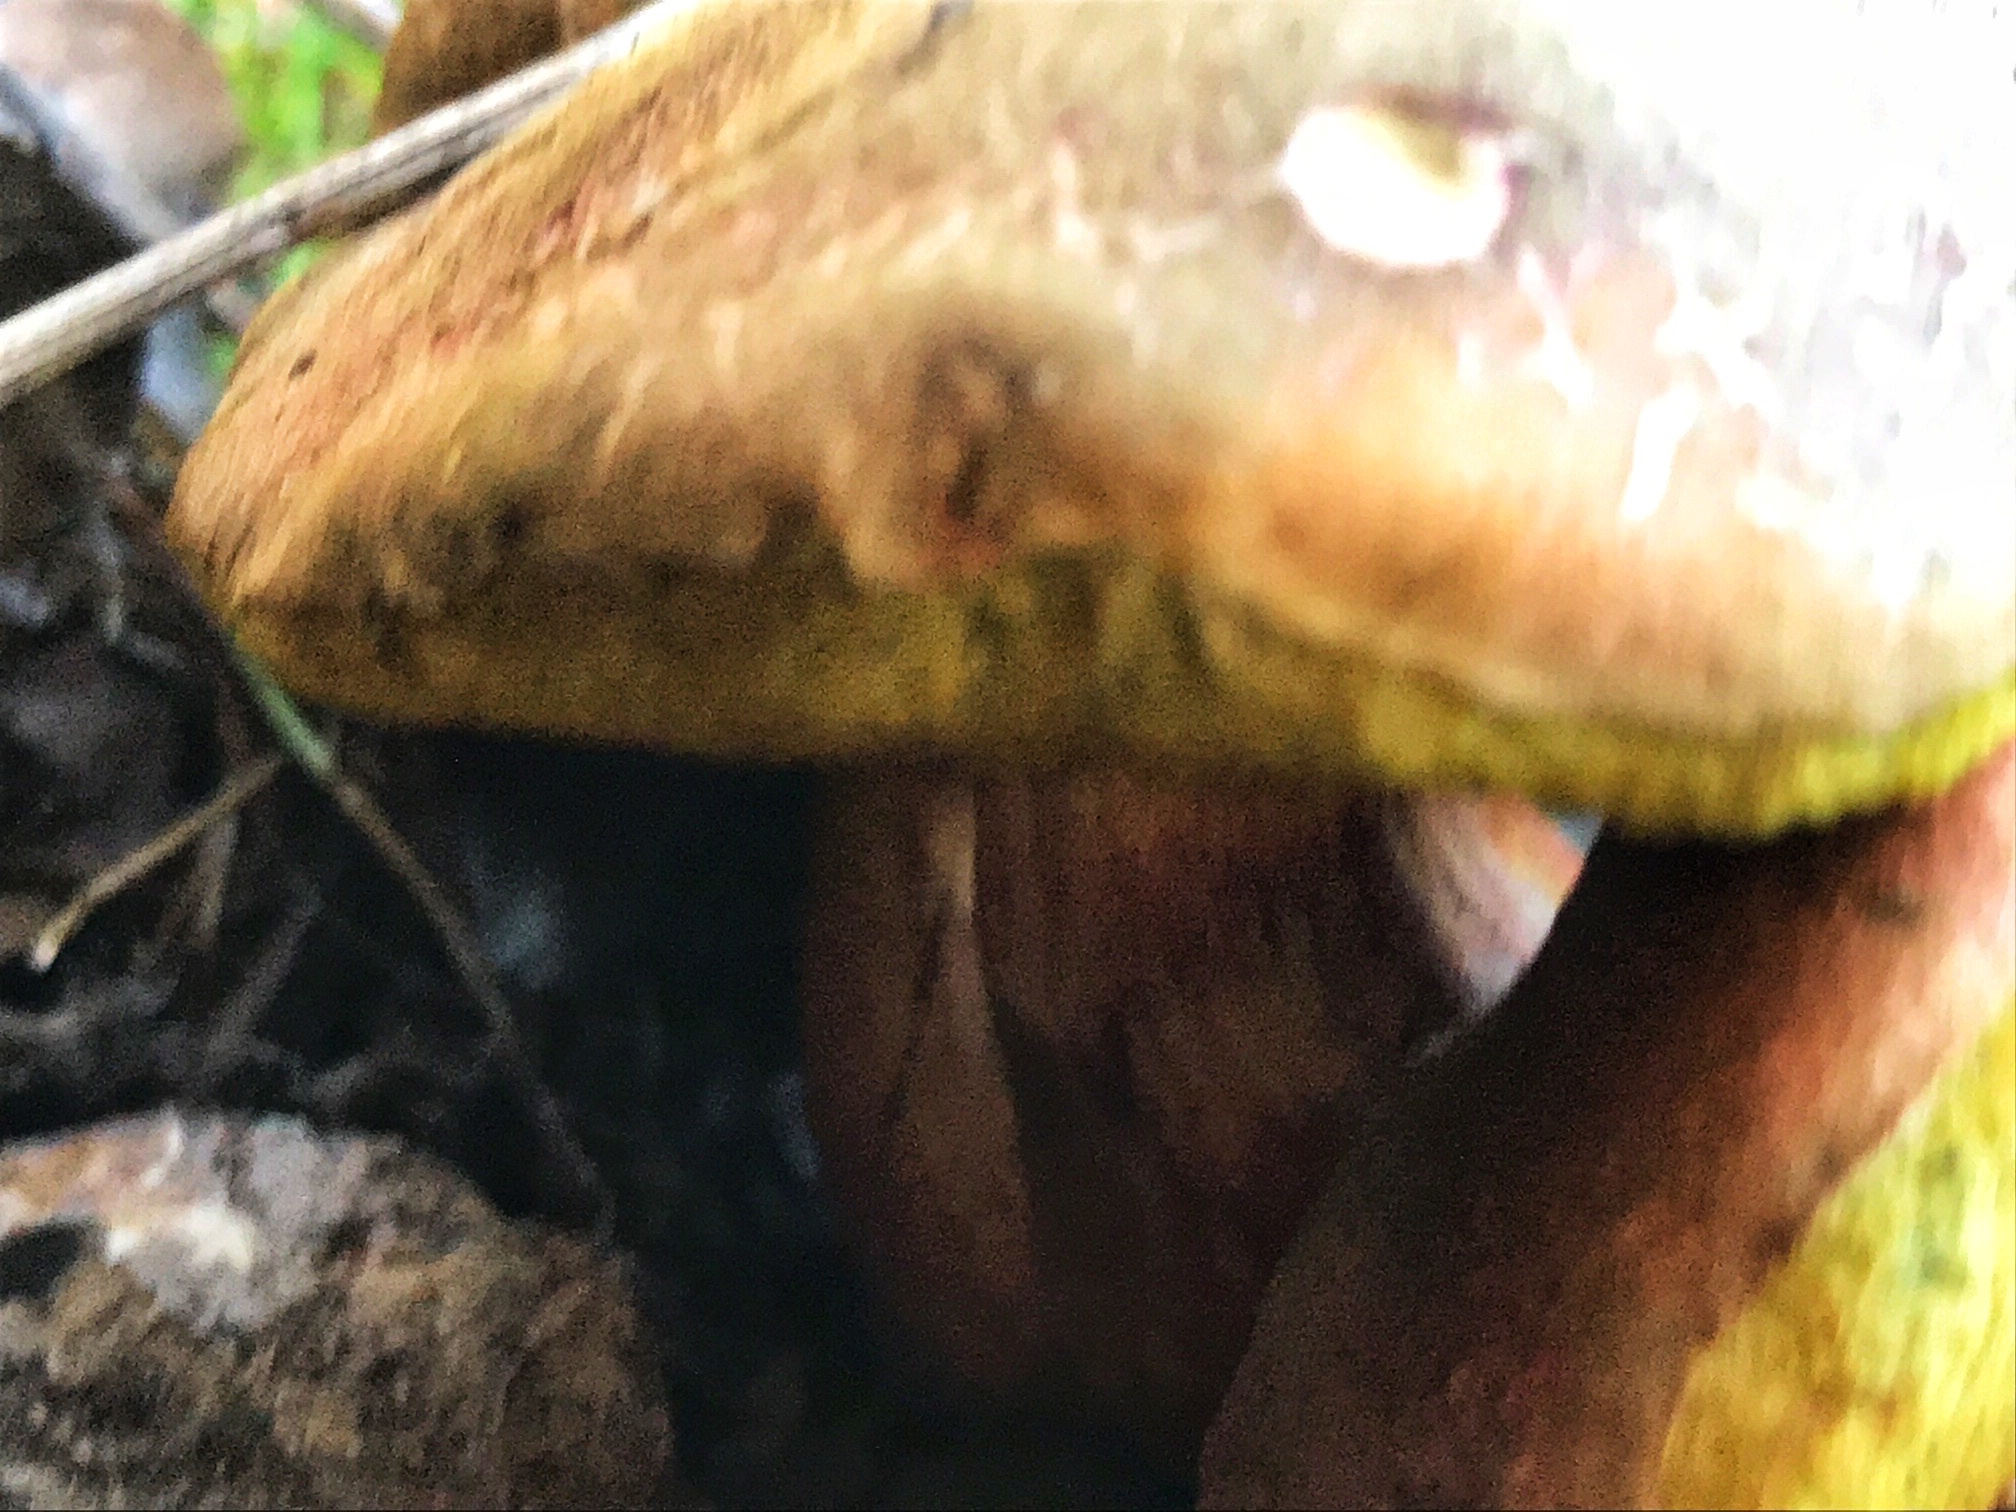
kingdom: Fungi
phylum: Basidiomycota
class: Agaricomycetes
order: Boletales
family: Boletaceae
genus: Xerocomellus
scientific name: Xerocomellus dryophilus
